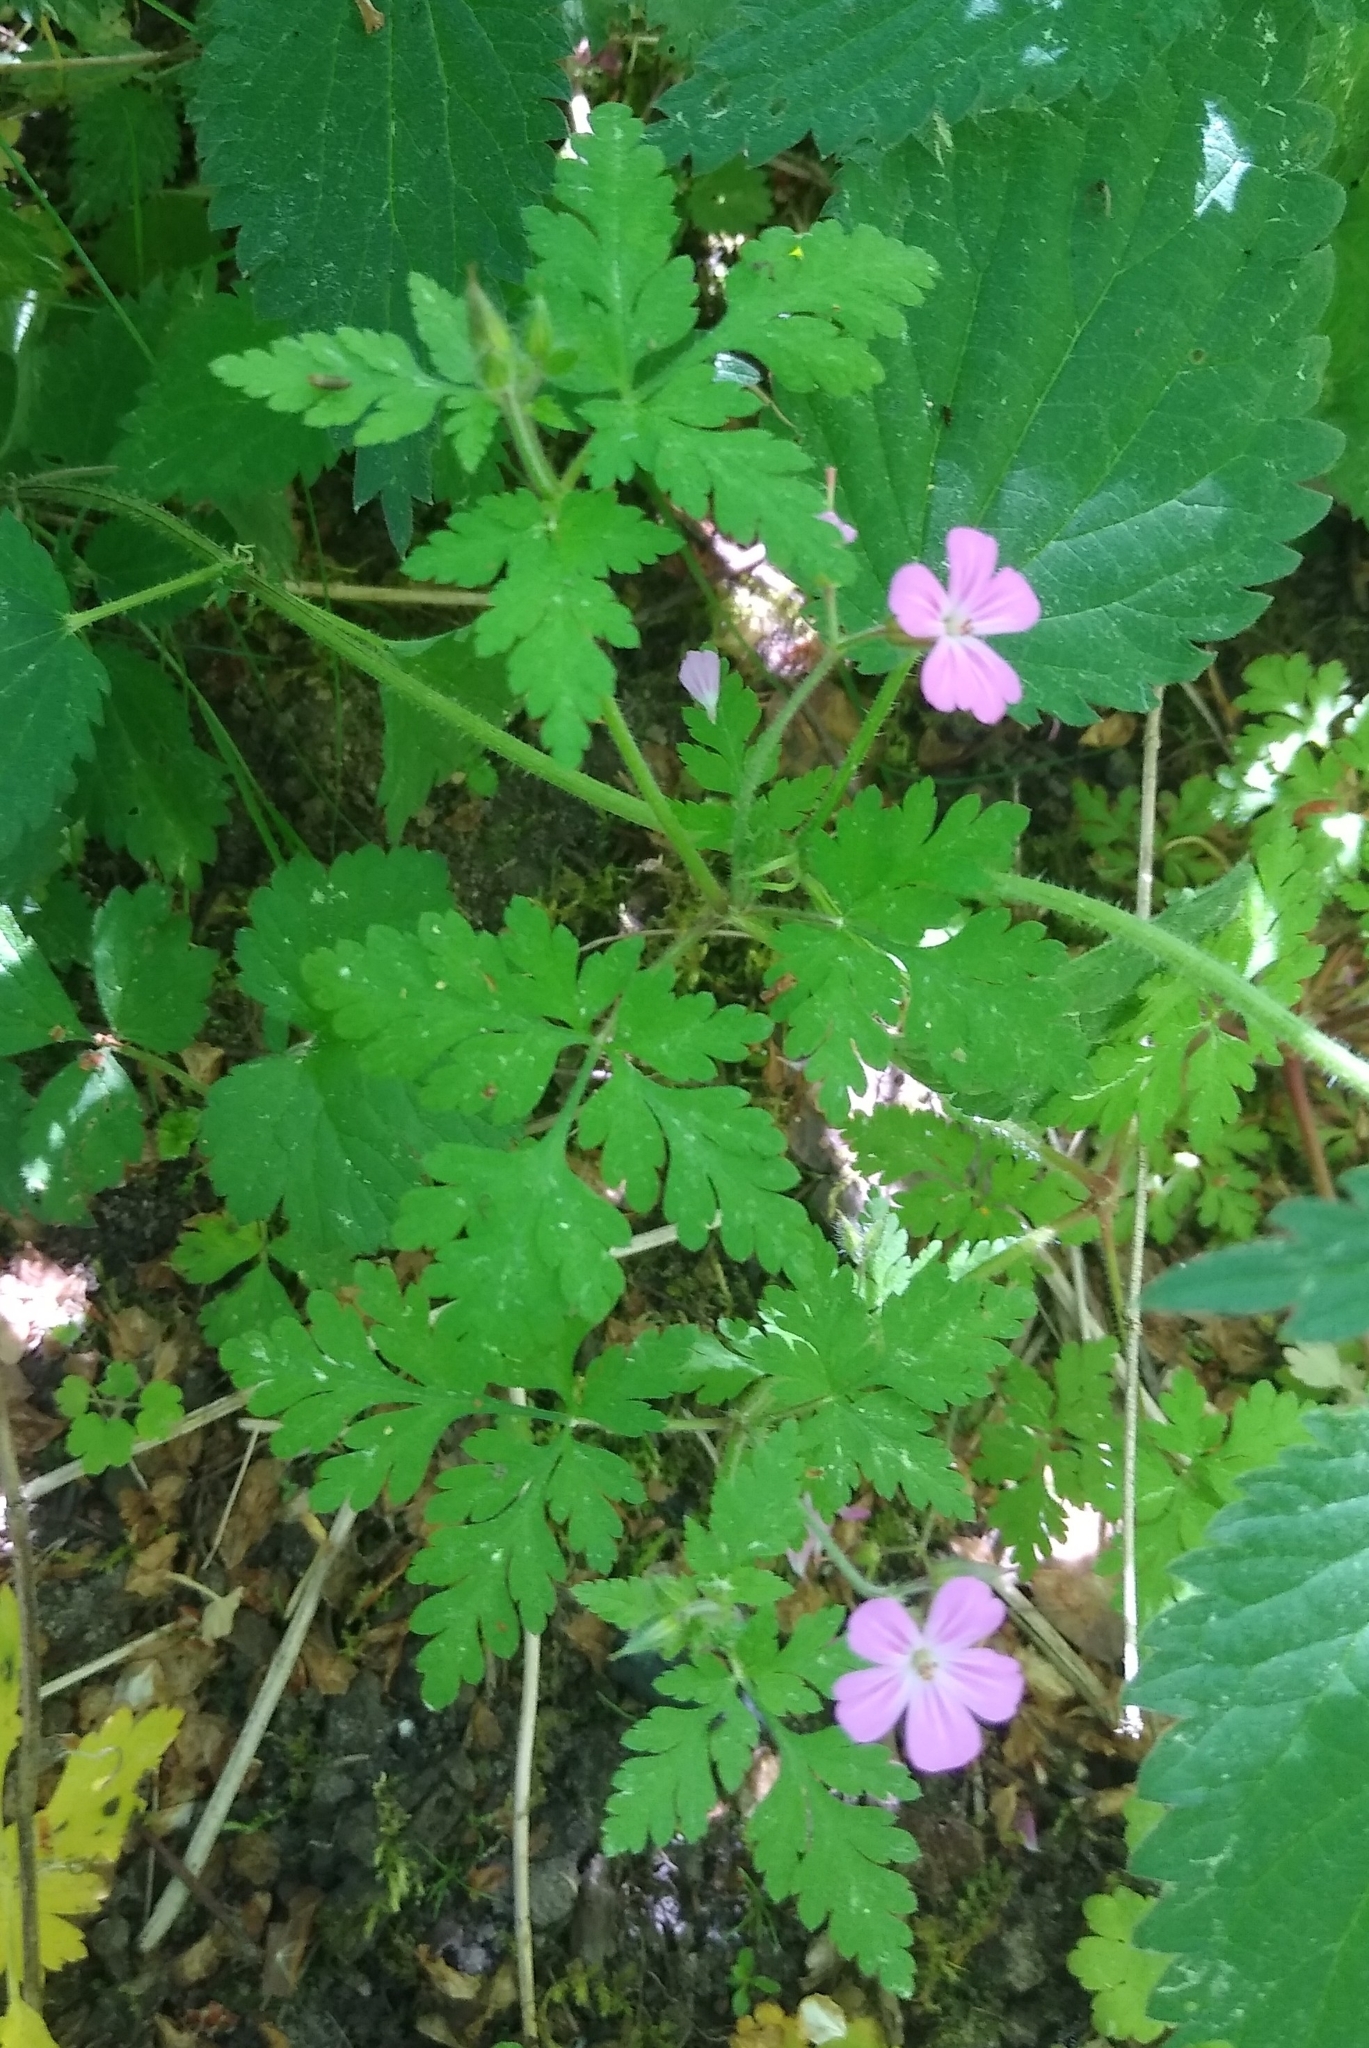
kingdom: Plantae
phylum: Tracheophyta
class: Magnoliopsida
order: Geraniales
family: Geraniaceae
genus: Geranium
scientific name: Geranium robertianum
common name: Herb-robert
